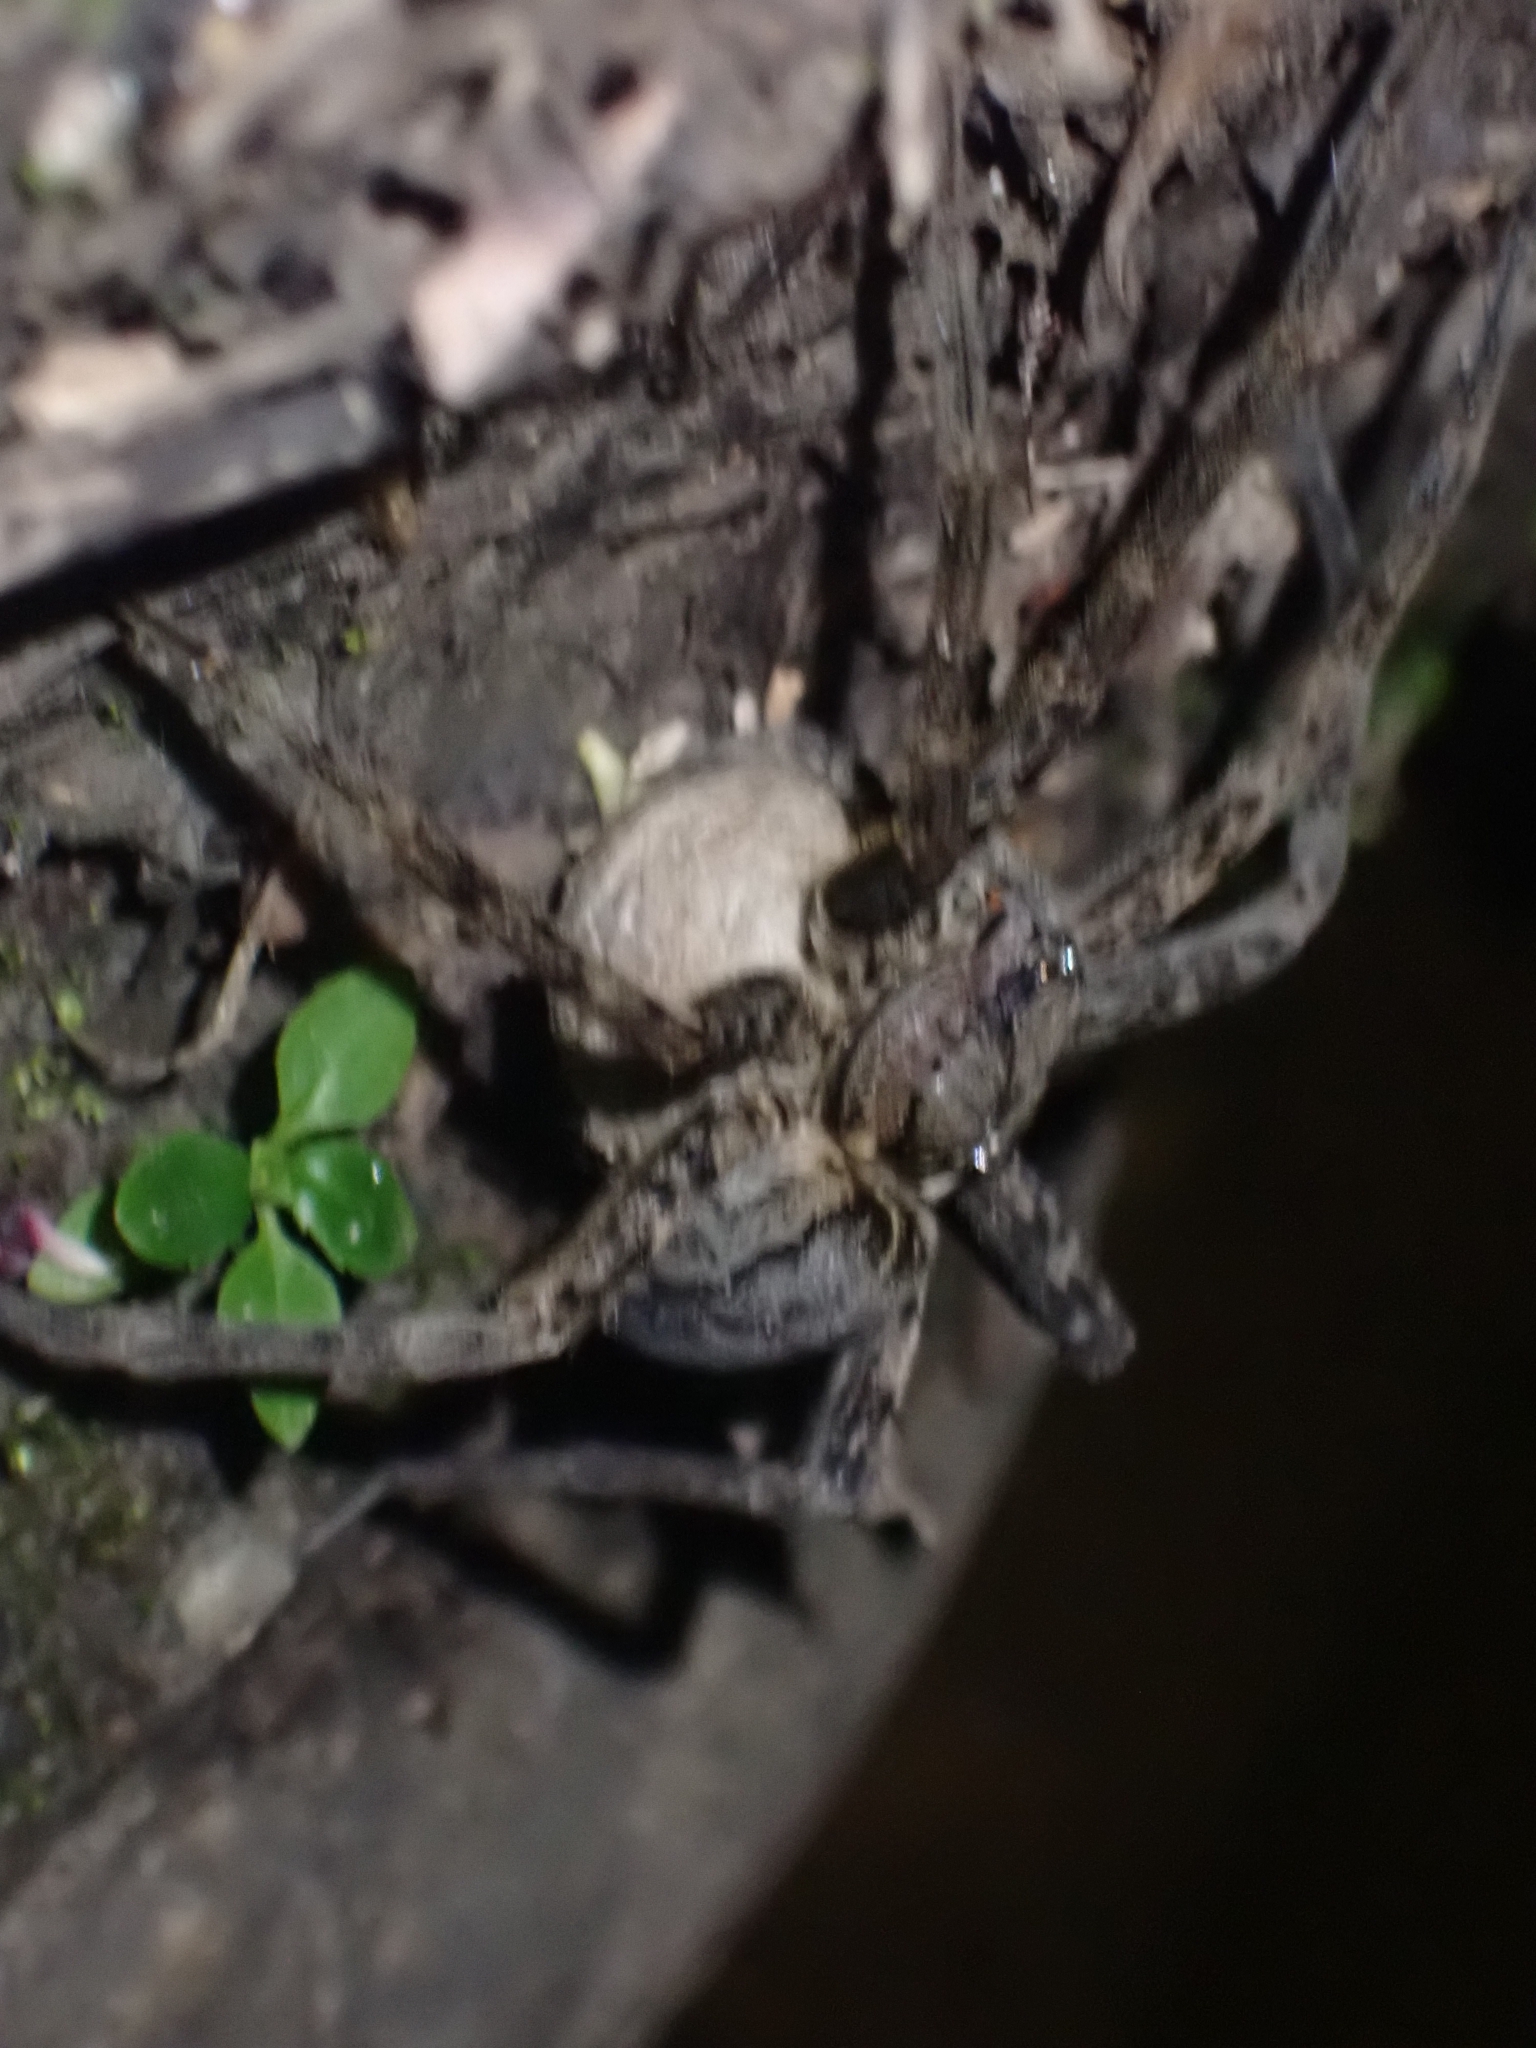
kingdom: Animalia
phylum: Arthropoda
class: Arachnida
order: Araneae
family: Pisauridae
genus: Dolomedes
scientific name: Dolomedes aquaticus
